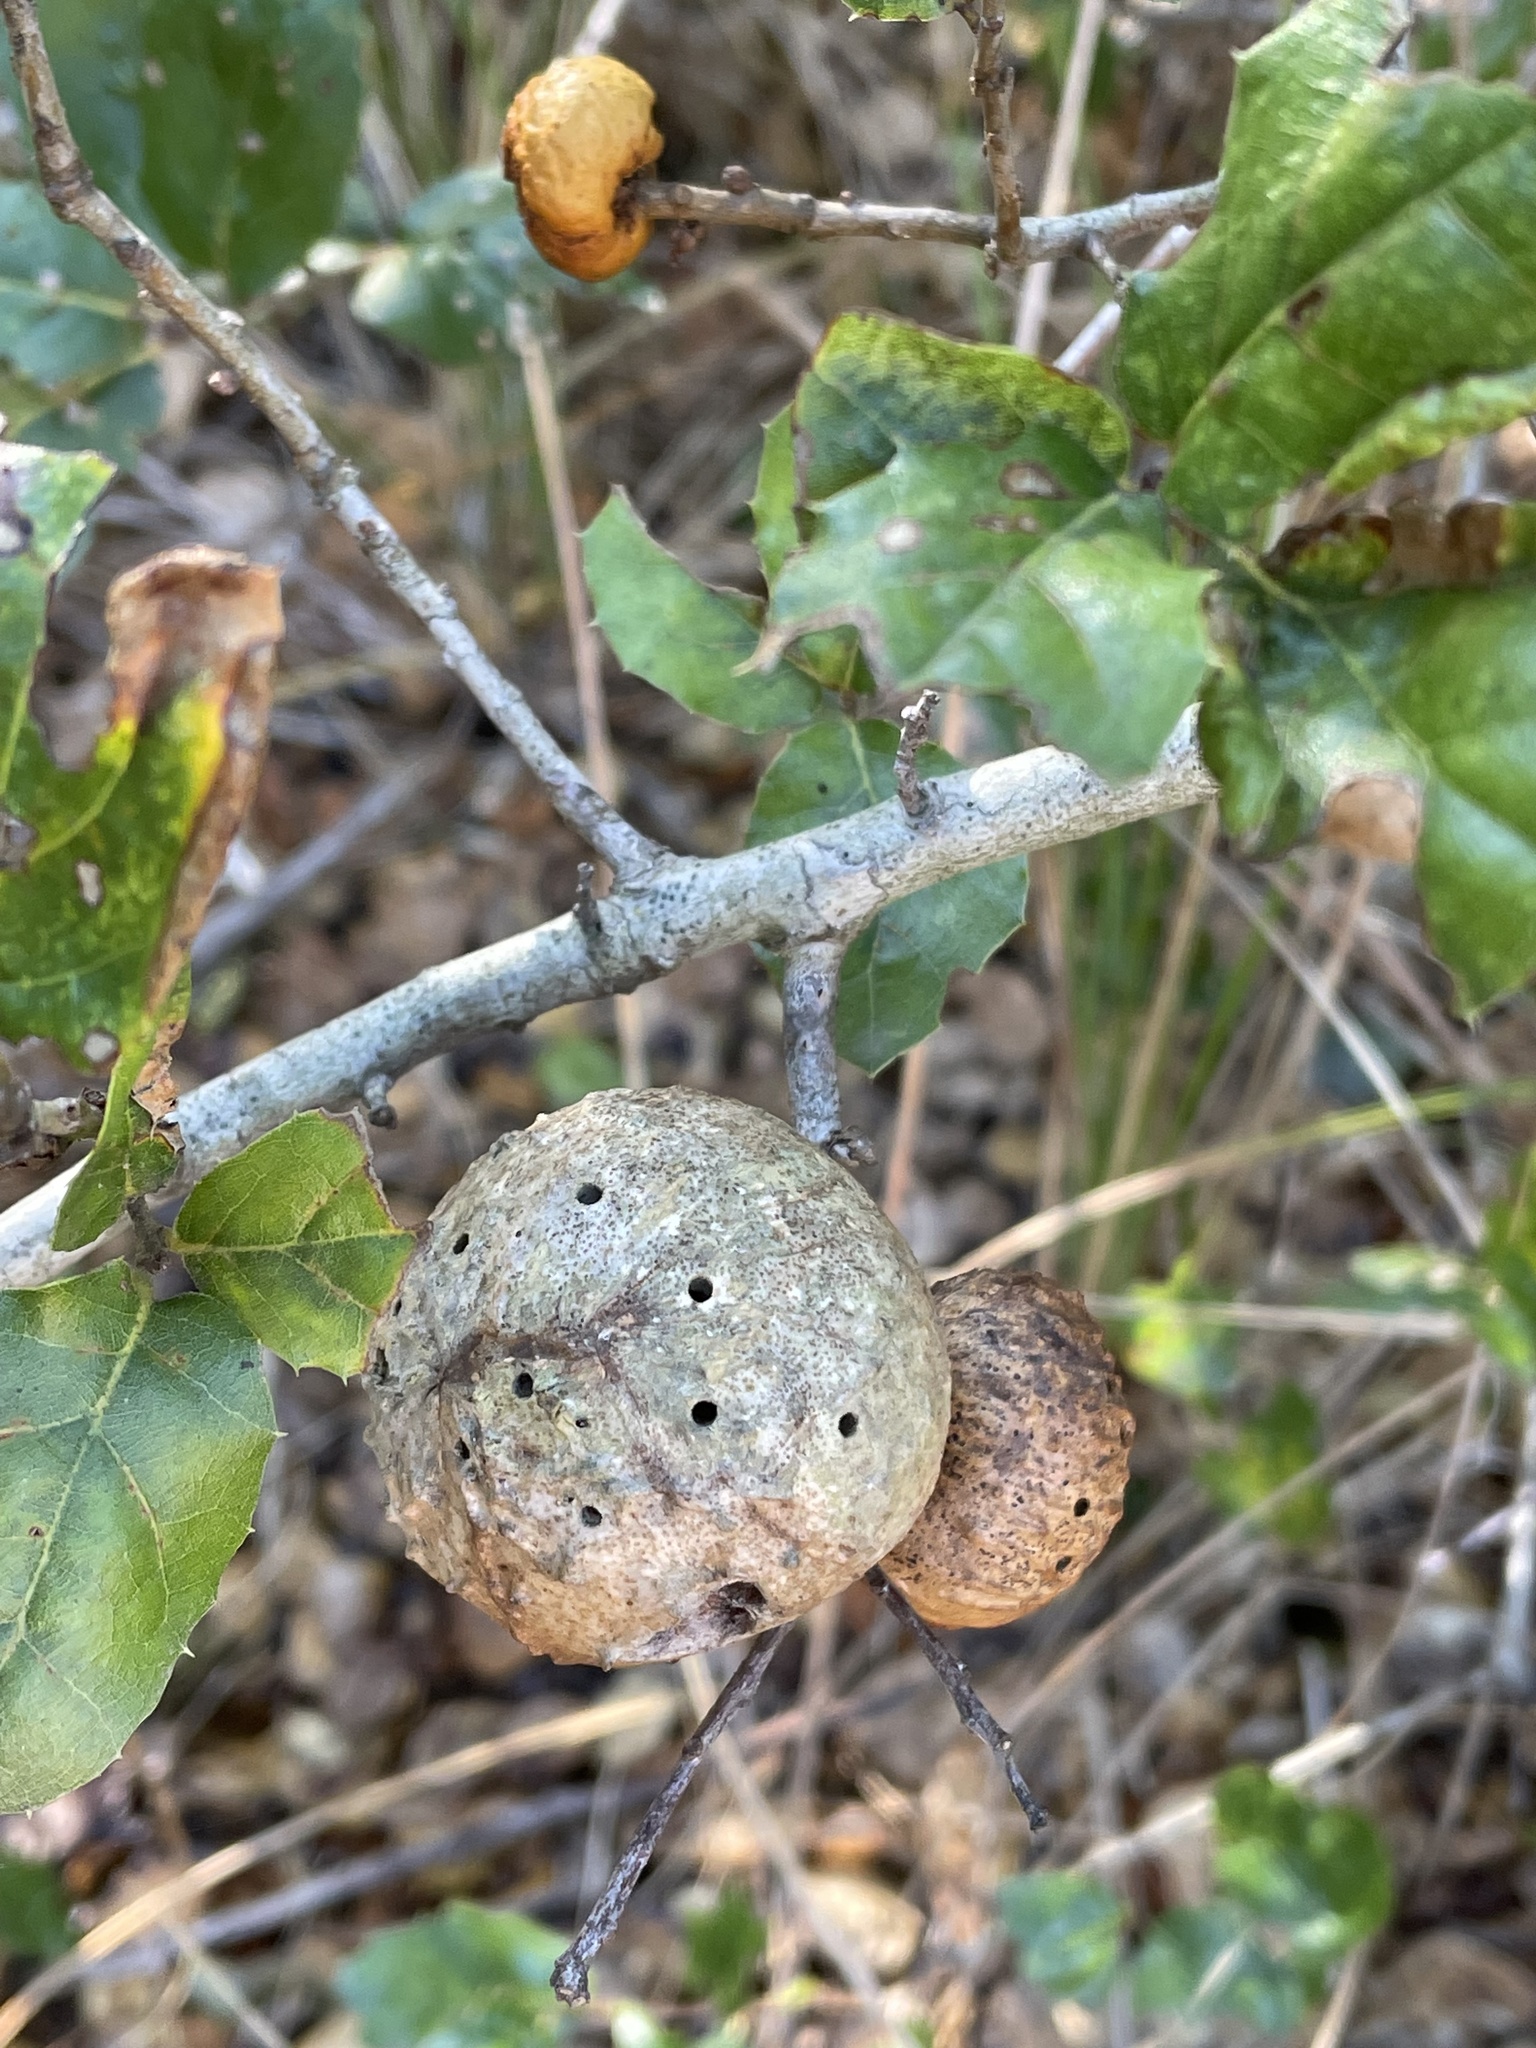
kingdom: Animalia
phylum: Arthropoda
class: Insecta
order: Hymenoptera
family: Cynipidae
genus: Amphibolips
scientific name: Amphibolips quercuspomiformis
